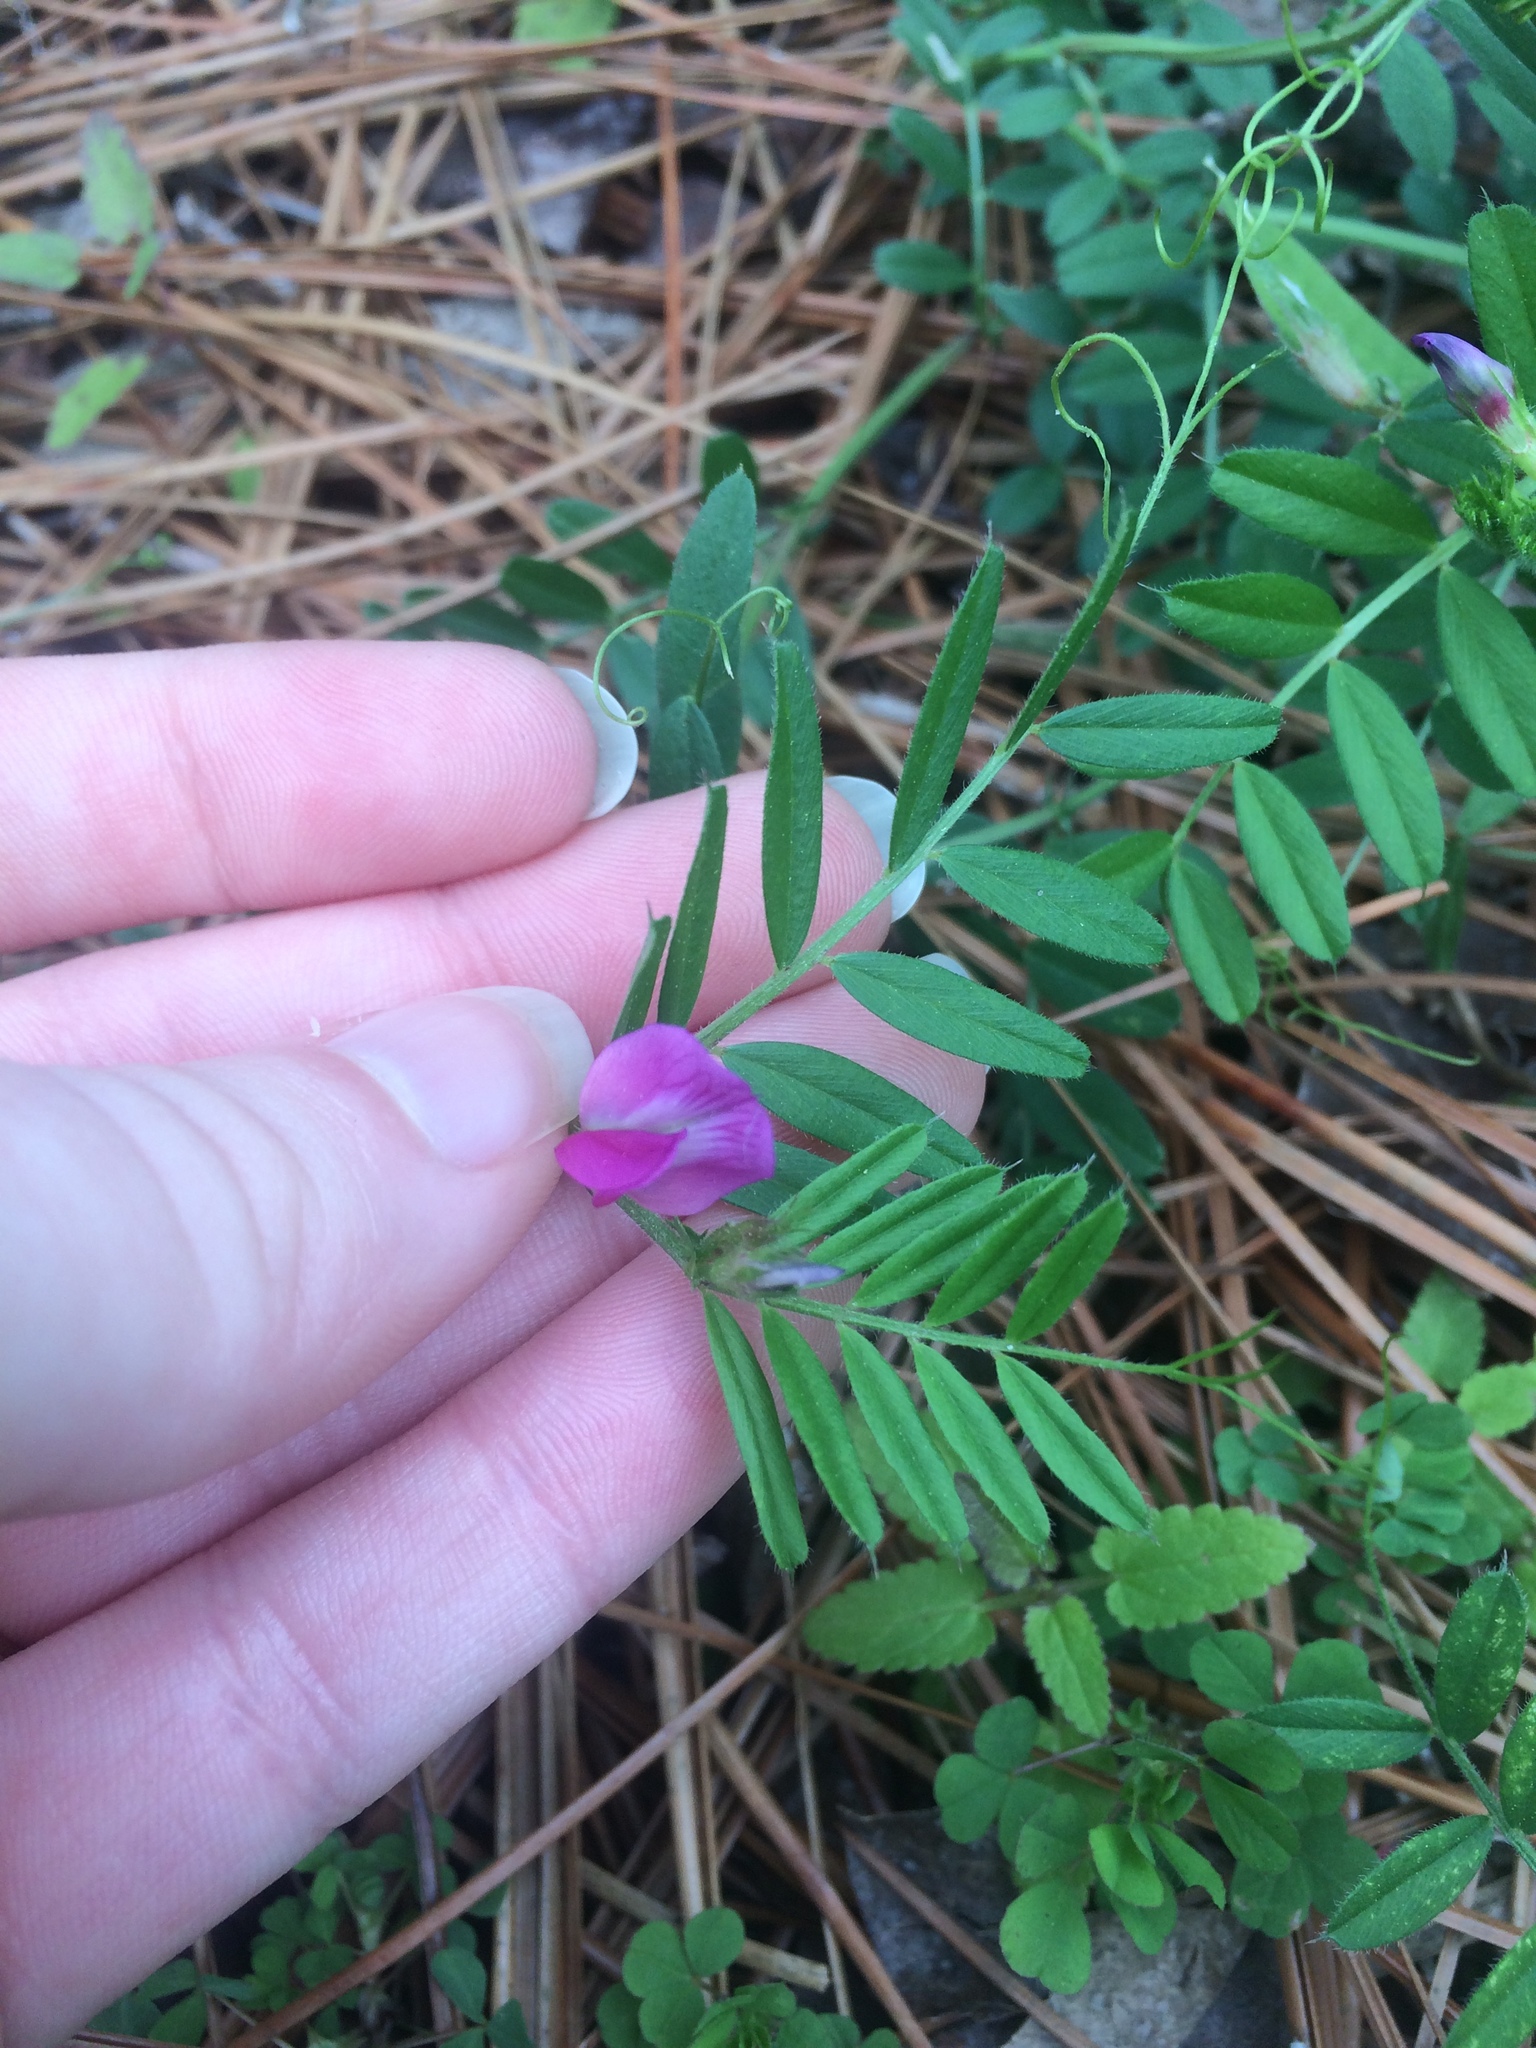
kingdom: Plantae
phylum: Tracheophyta
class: Magnoliopsida
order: Fabales
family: Fabaceae
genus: Vicia
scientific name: Vicia sativa
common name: Garden vetch
